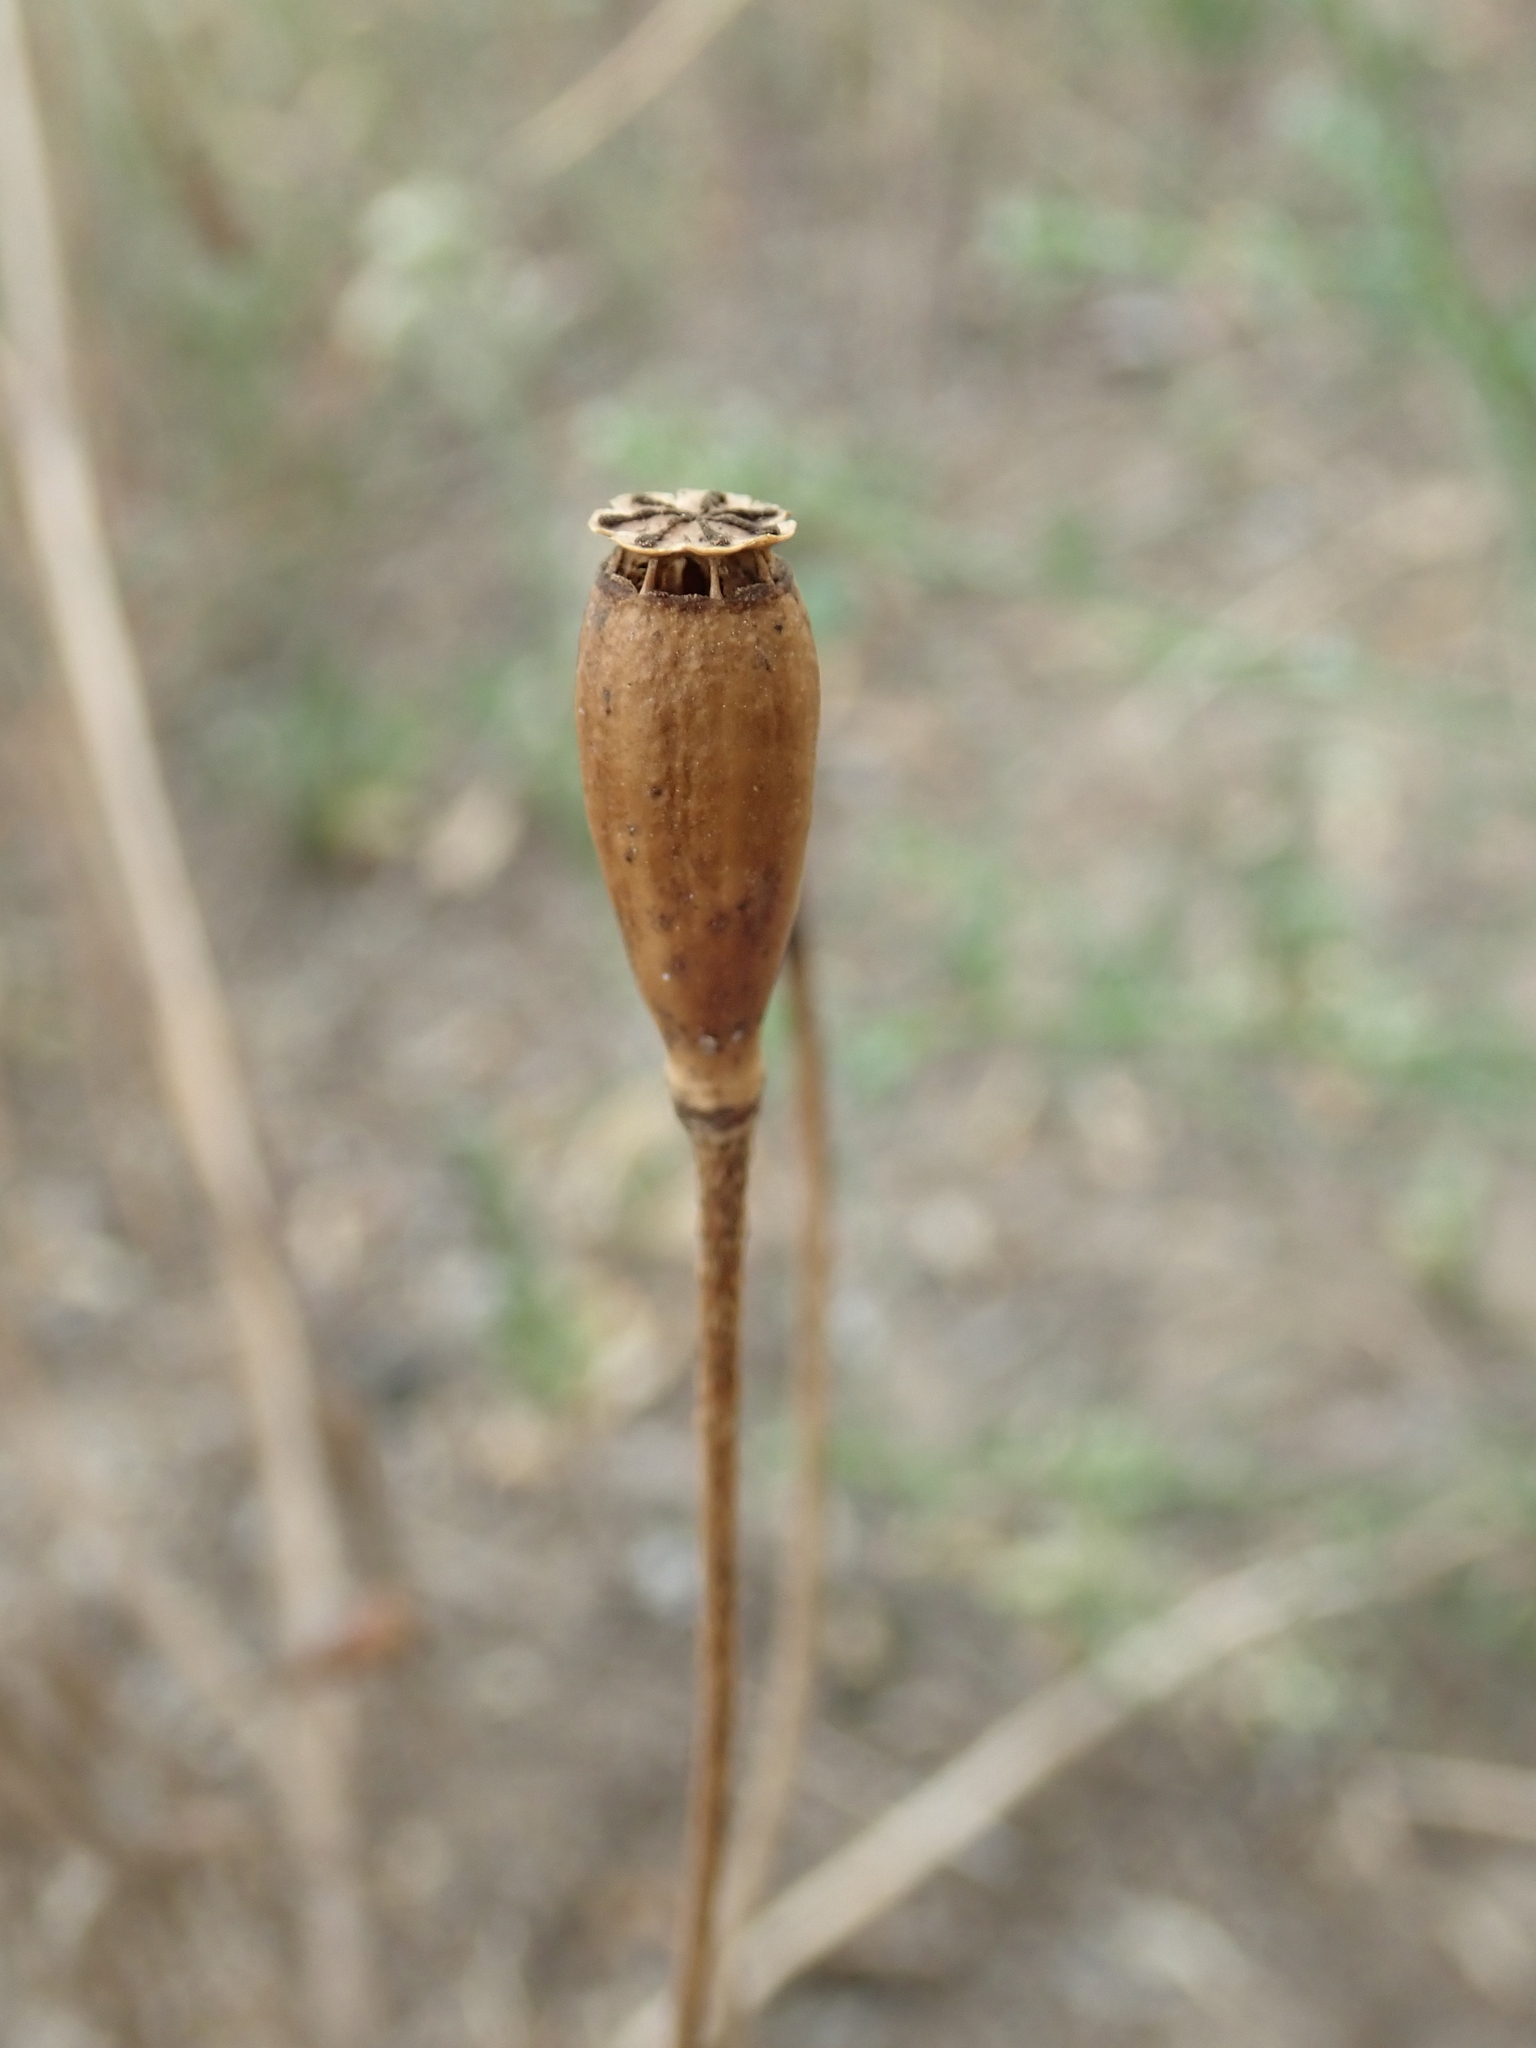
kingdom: Plantae
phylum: Tracheophyta
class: Magnoliopsida
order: Ranunculales
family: Papaveraceae
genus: Papaver
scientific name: Papaver dubium
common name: Long-headed poppy
